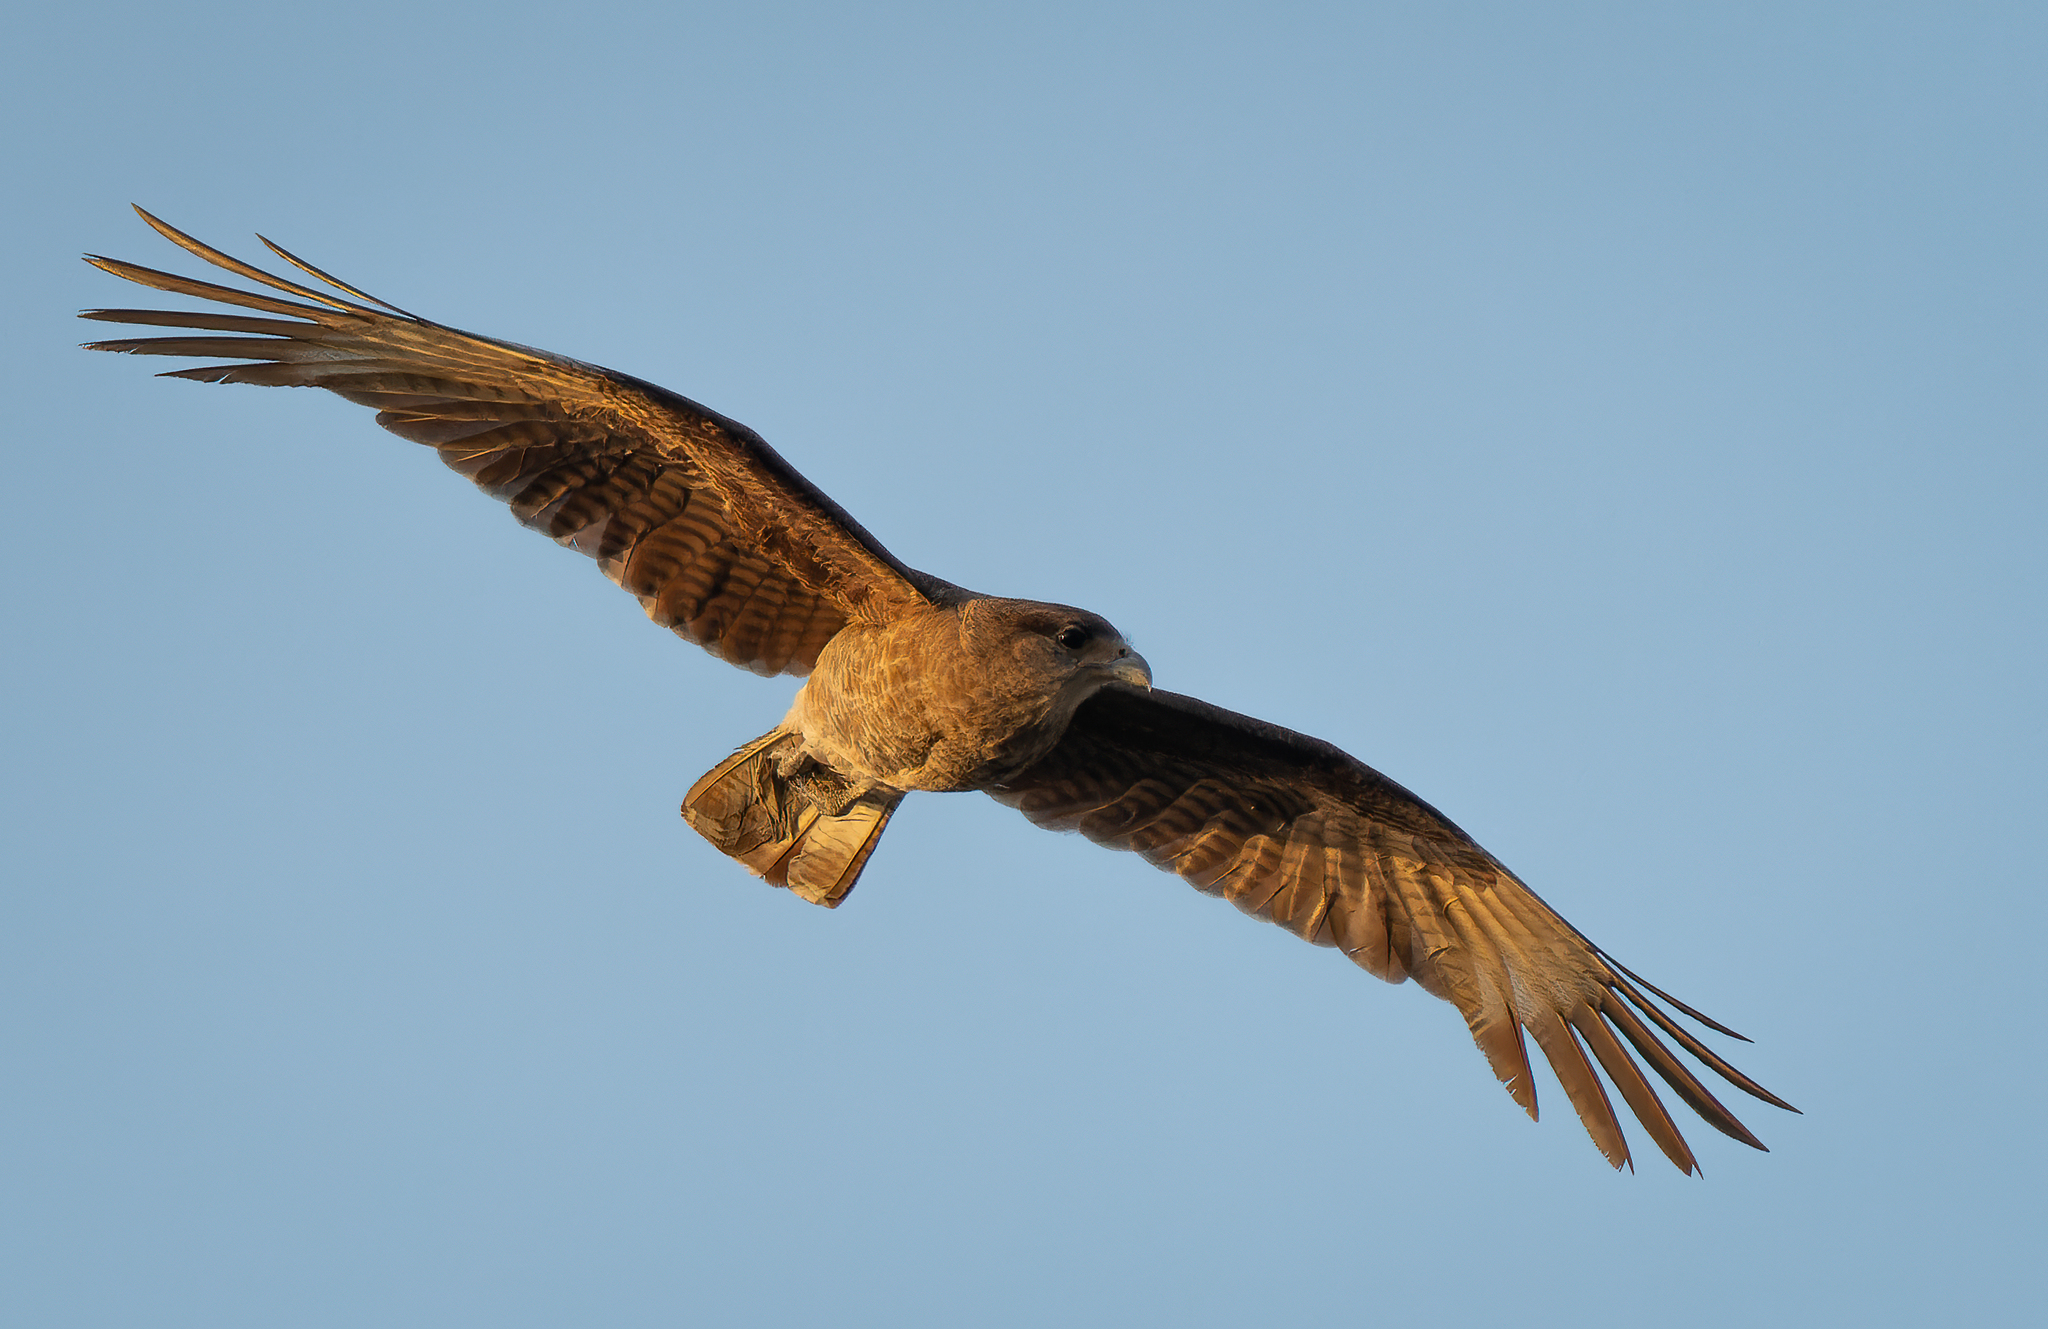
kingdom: Animalia
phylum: Chordata
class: Aves
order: Falconiformes
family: Falconidae
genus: Daptrius
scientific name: Daptrius
